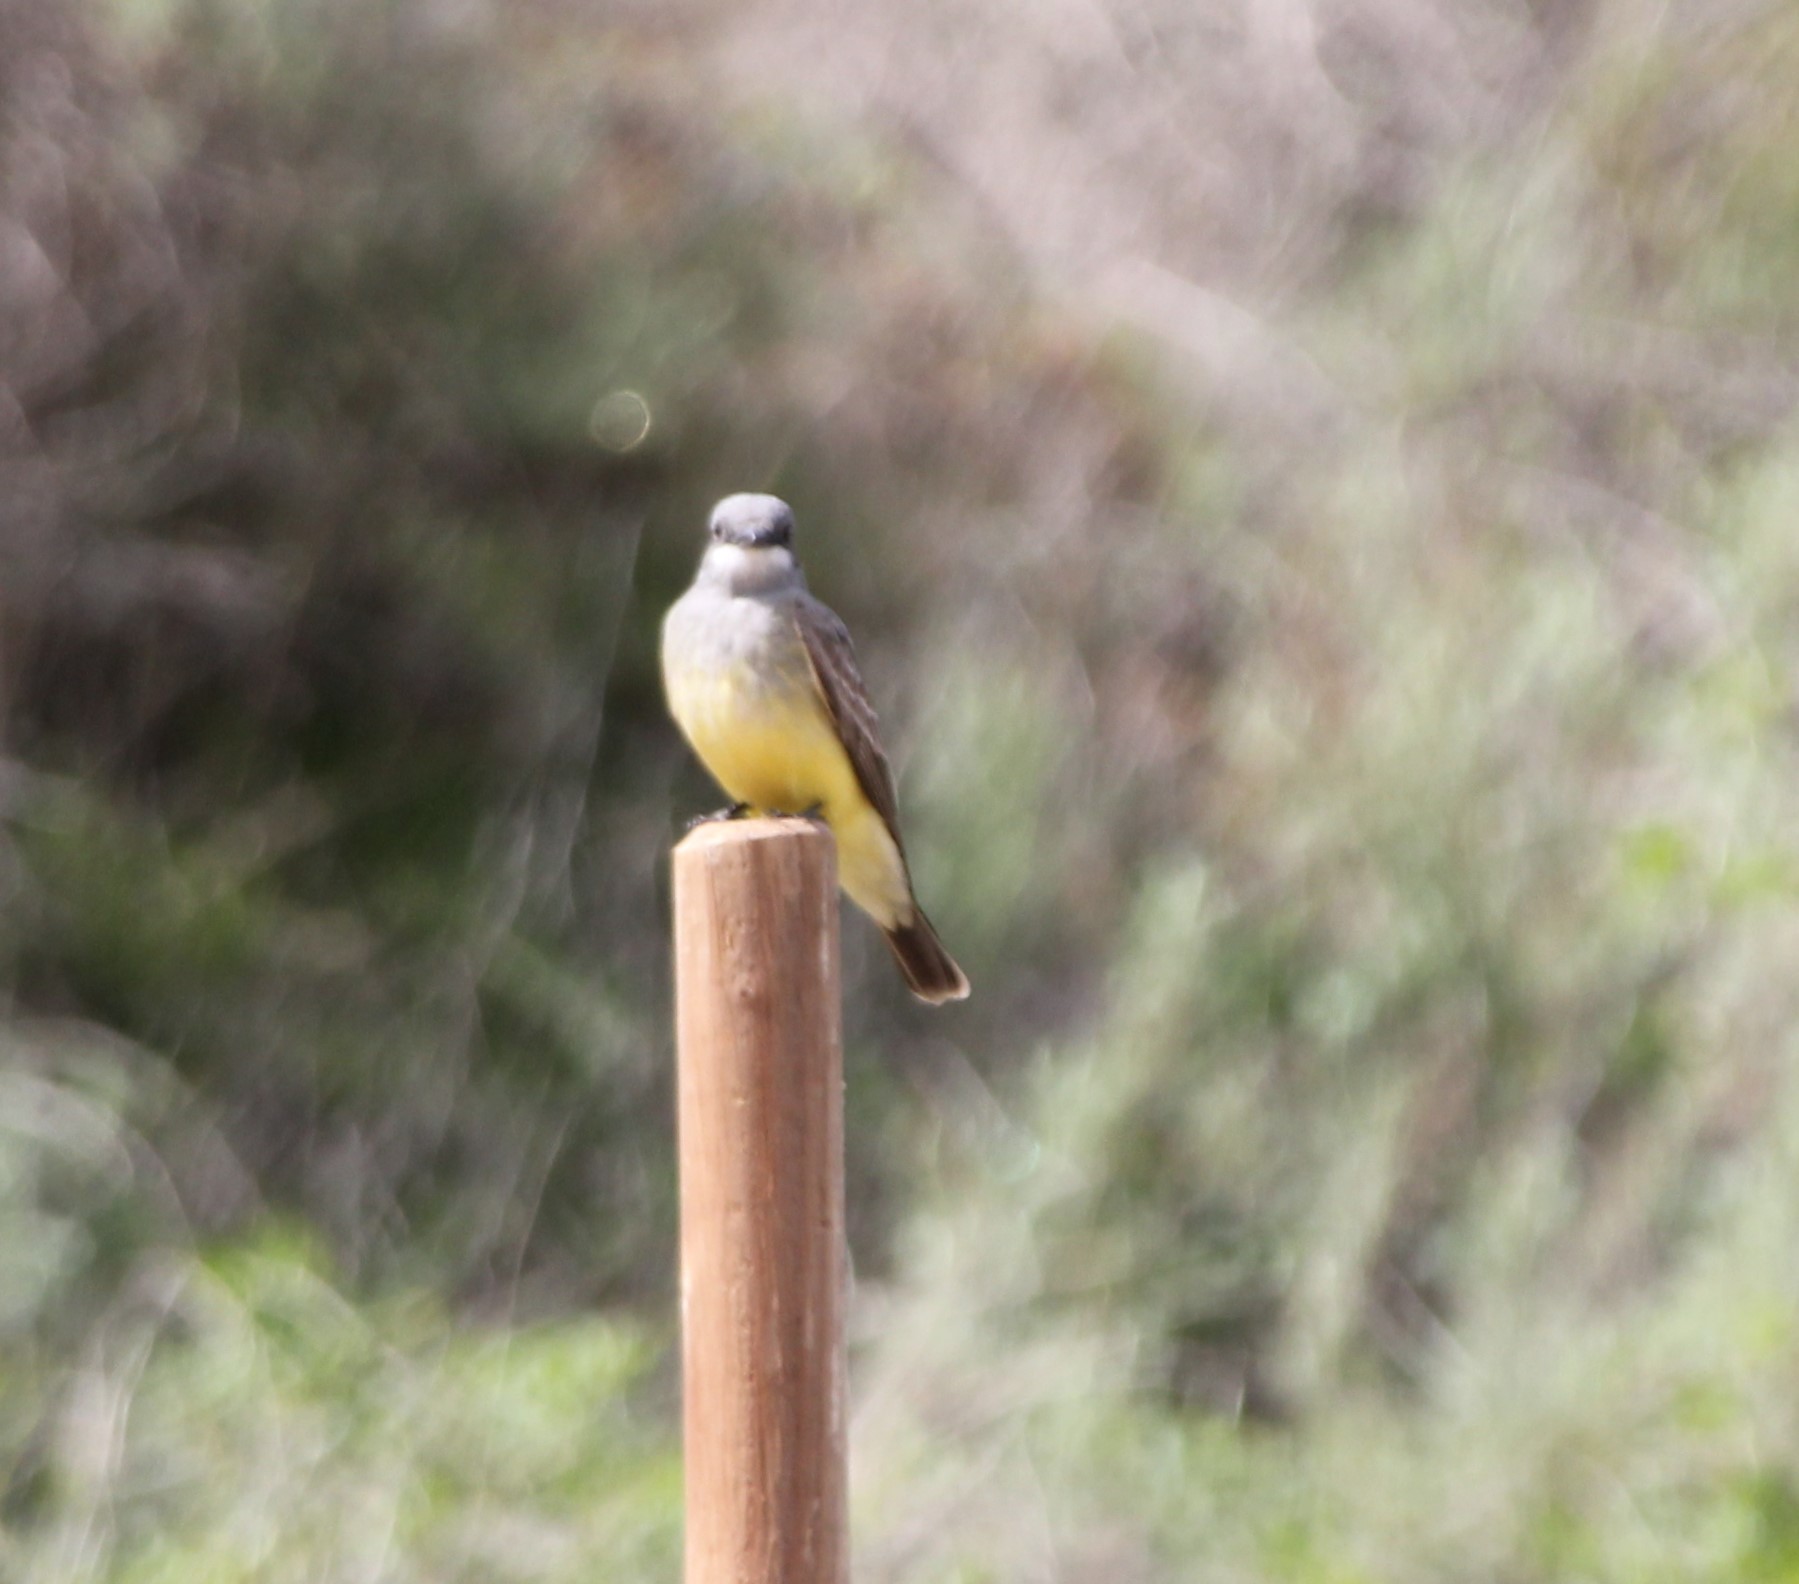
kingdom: Animalia
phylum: Chordata
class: Aves
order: Passeriformes
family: Tyrannidae
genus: Tyrannus
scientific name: Tyrannus vociferans
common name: Cassin's kingbird
